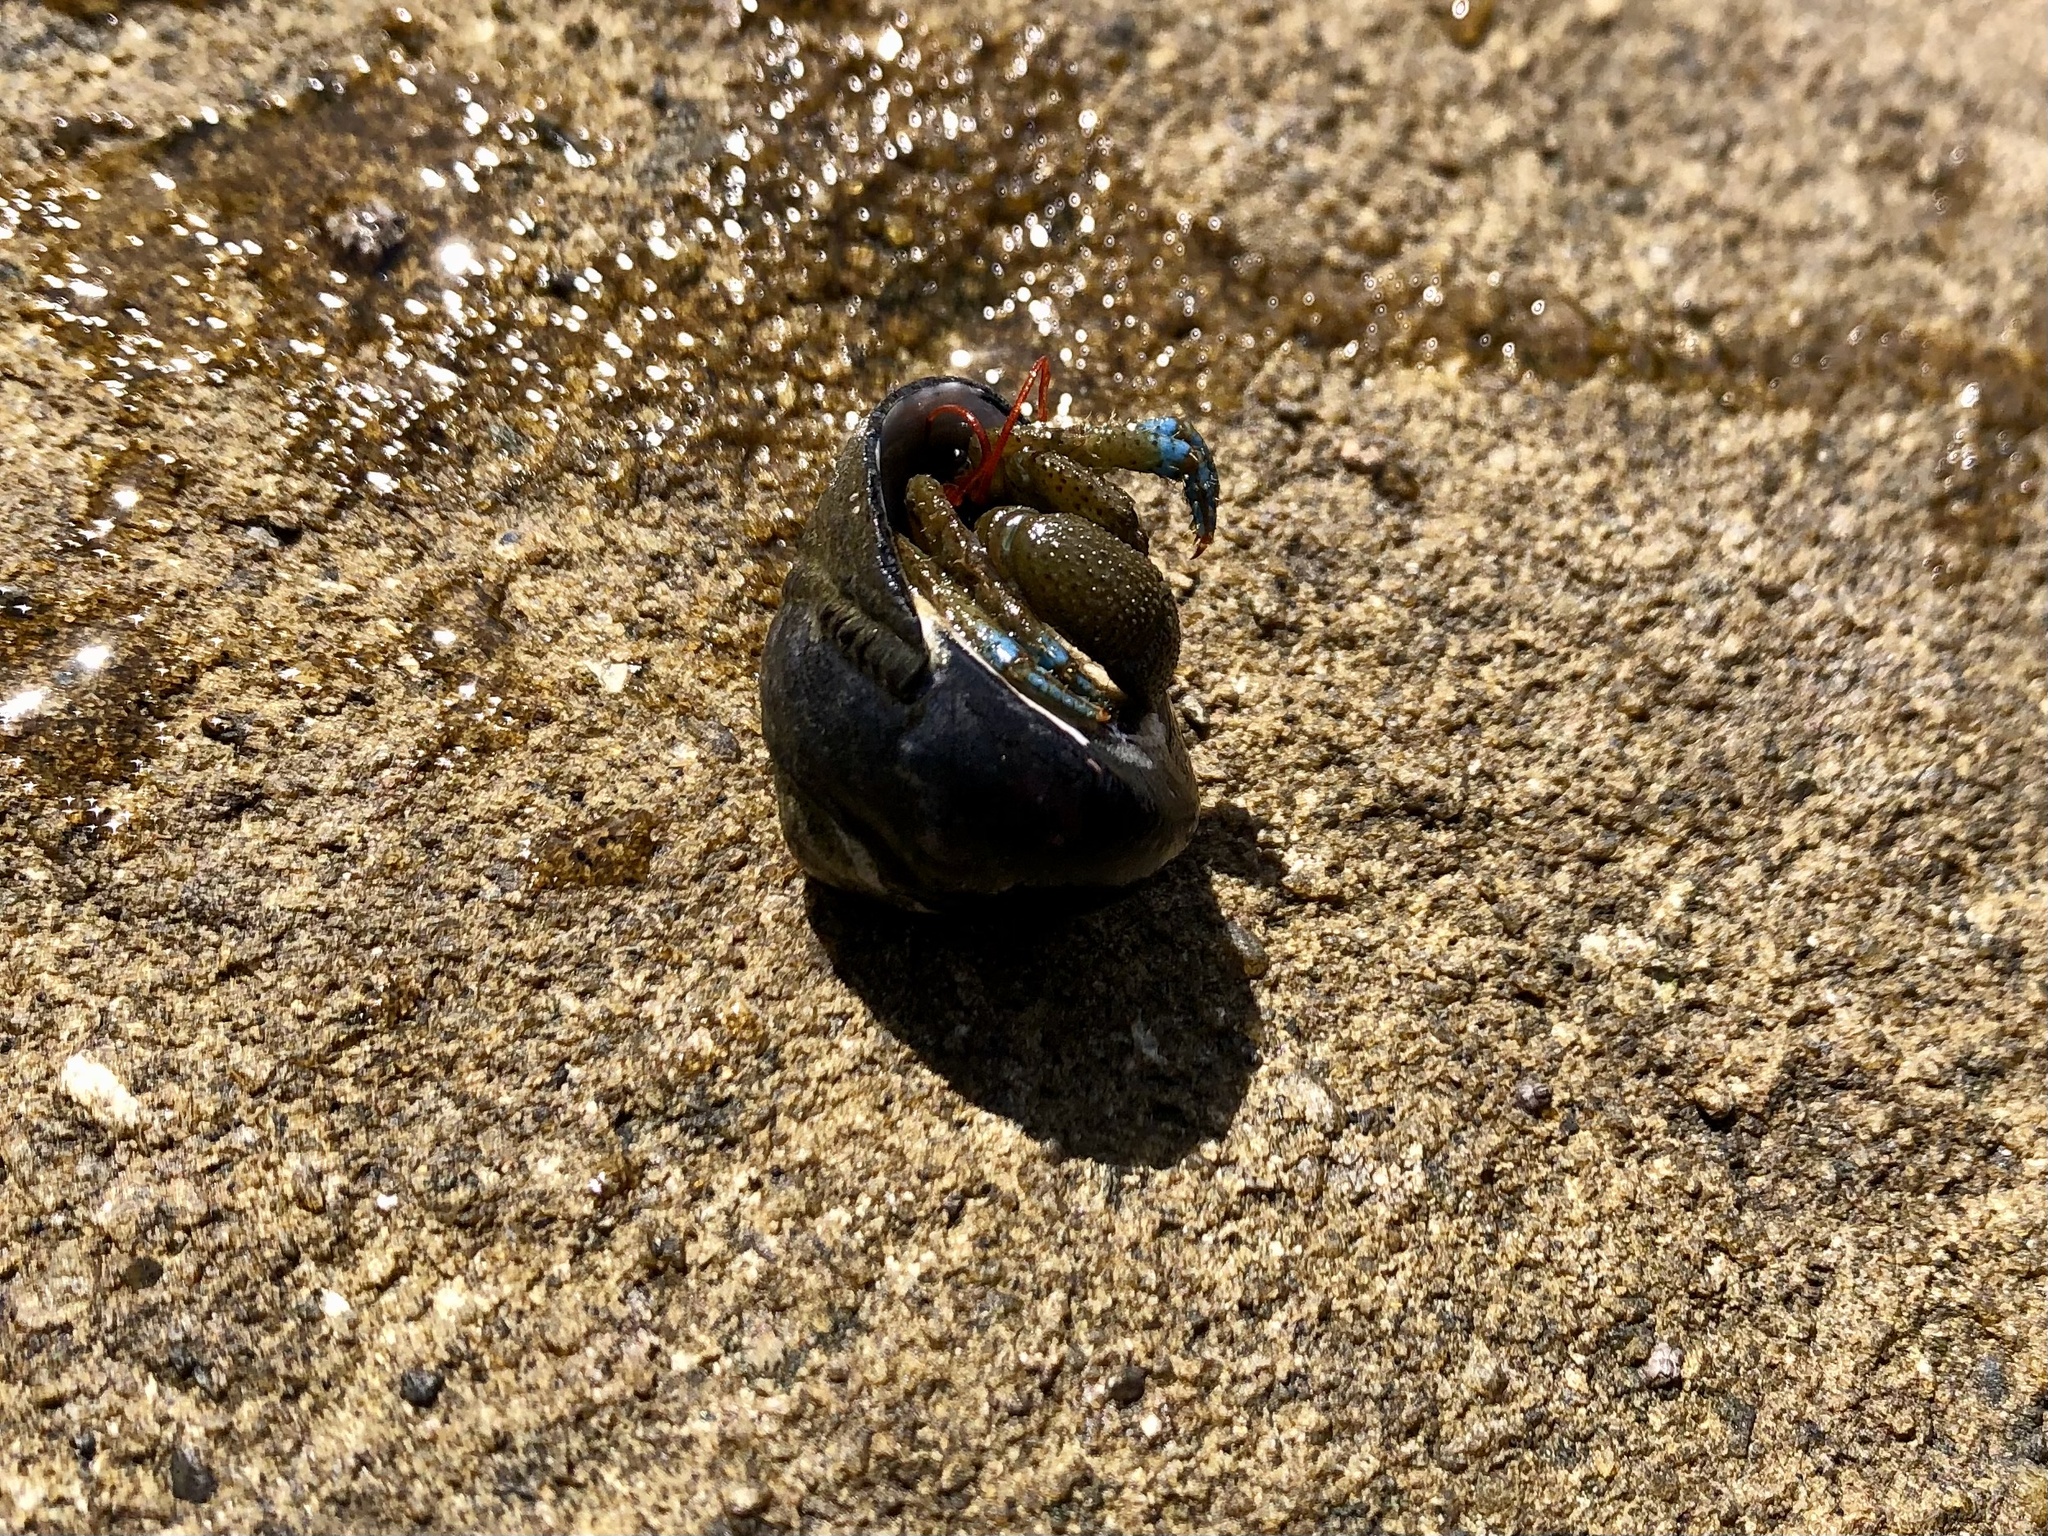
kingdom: Animalia
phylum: Arthropoda
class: Malacostraca
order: Decapoda
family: Paguridae
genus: Pagurus
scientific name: Pagurus samuelis
